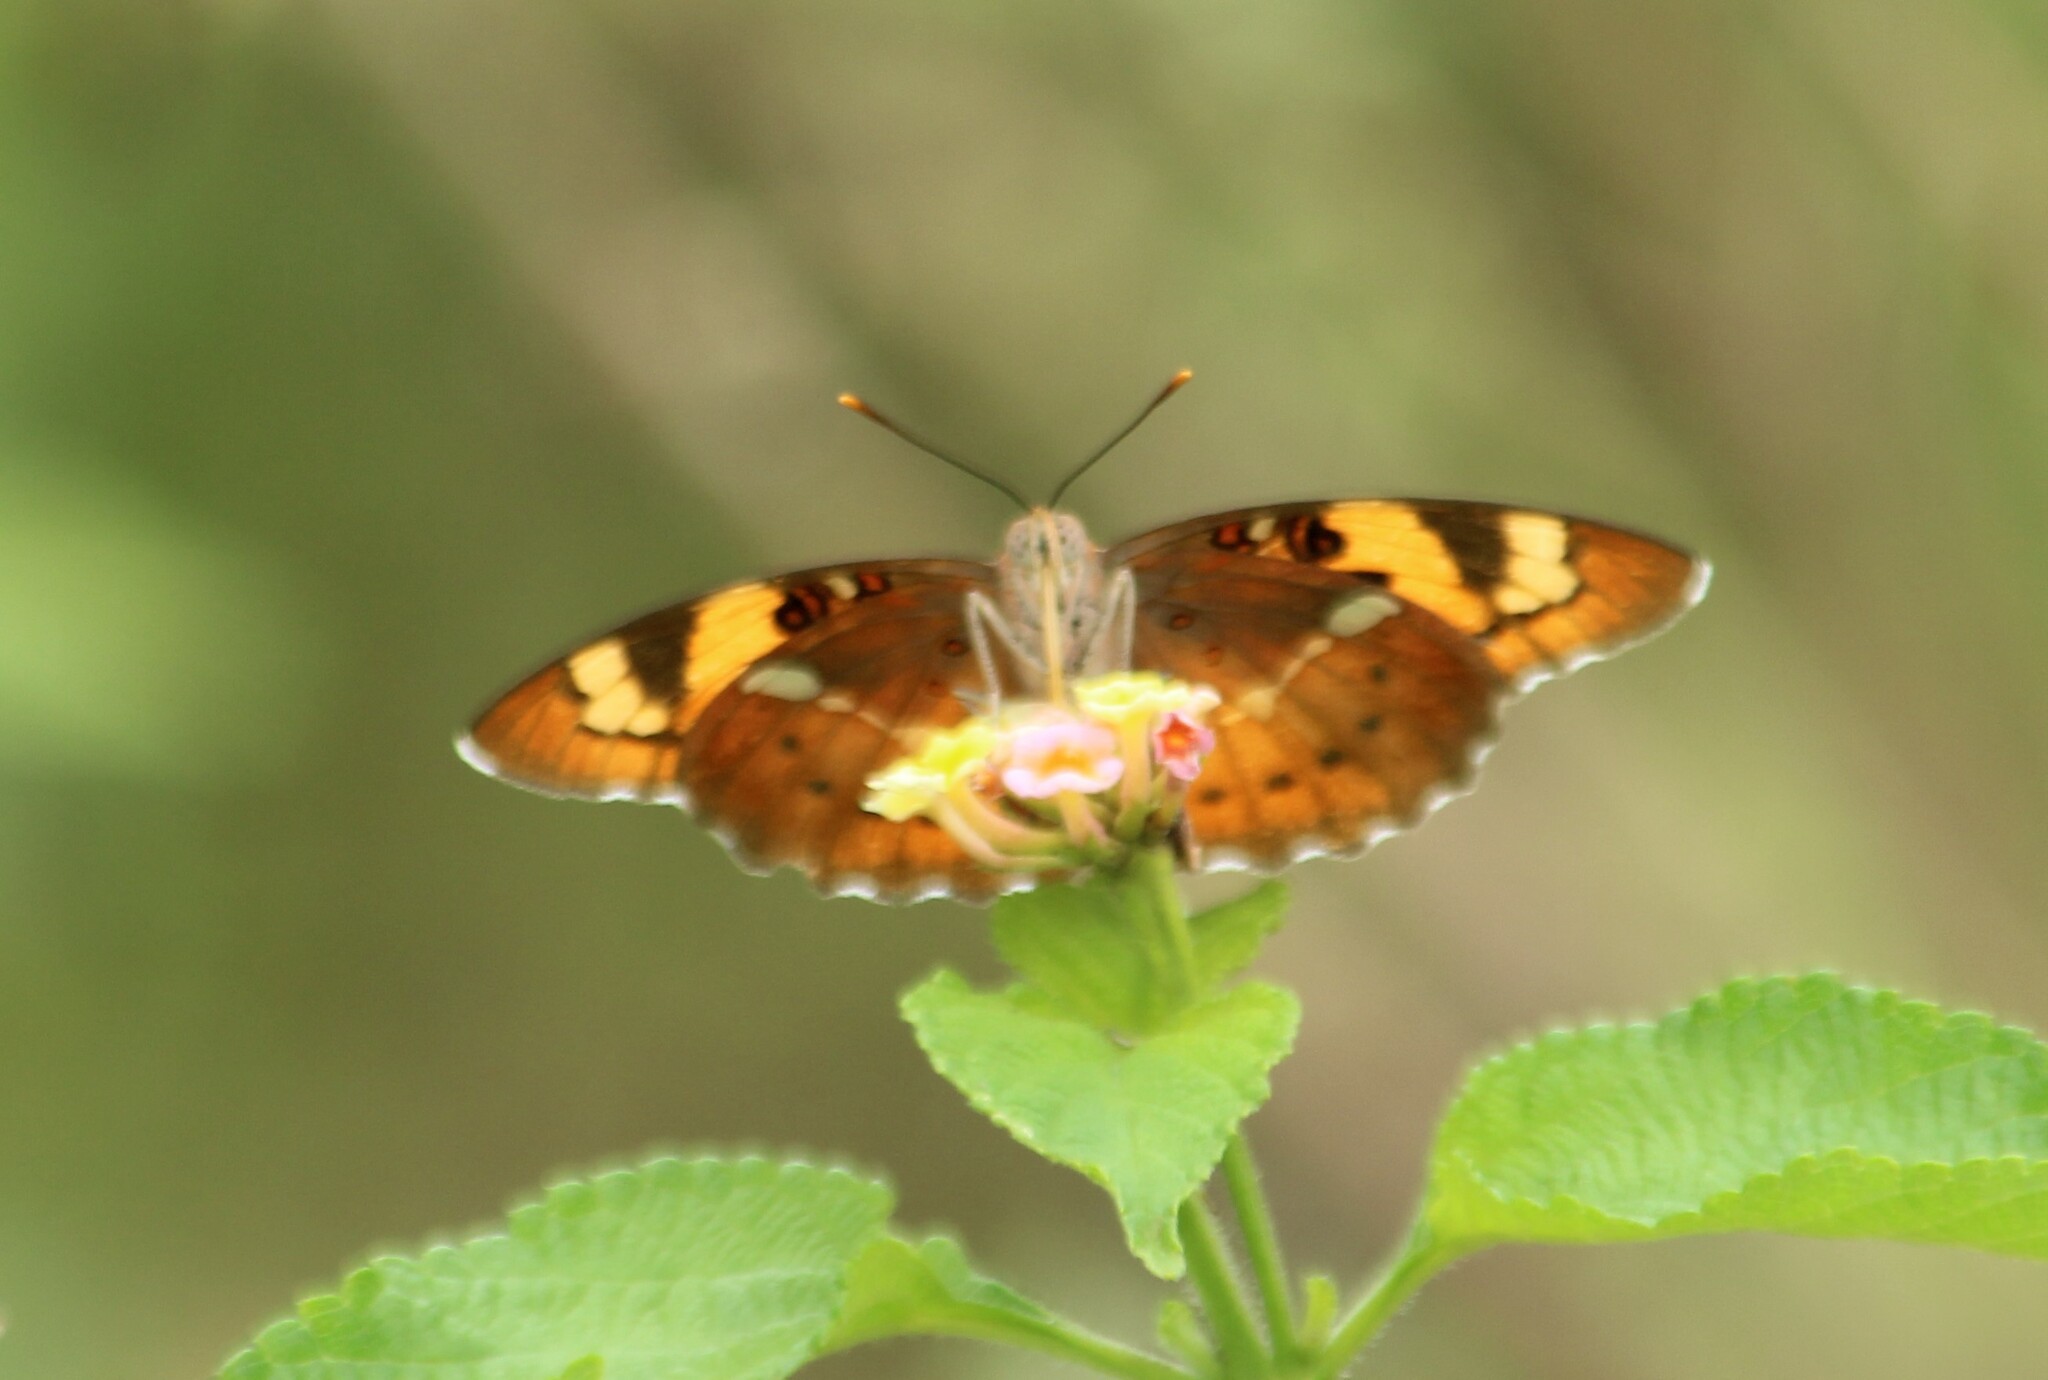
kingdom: Animalia
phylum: Arthropoda
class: Insecta
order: Lepidoptera
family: Nymphalidae
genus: Euthalia
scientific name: Euthalia nais
